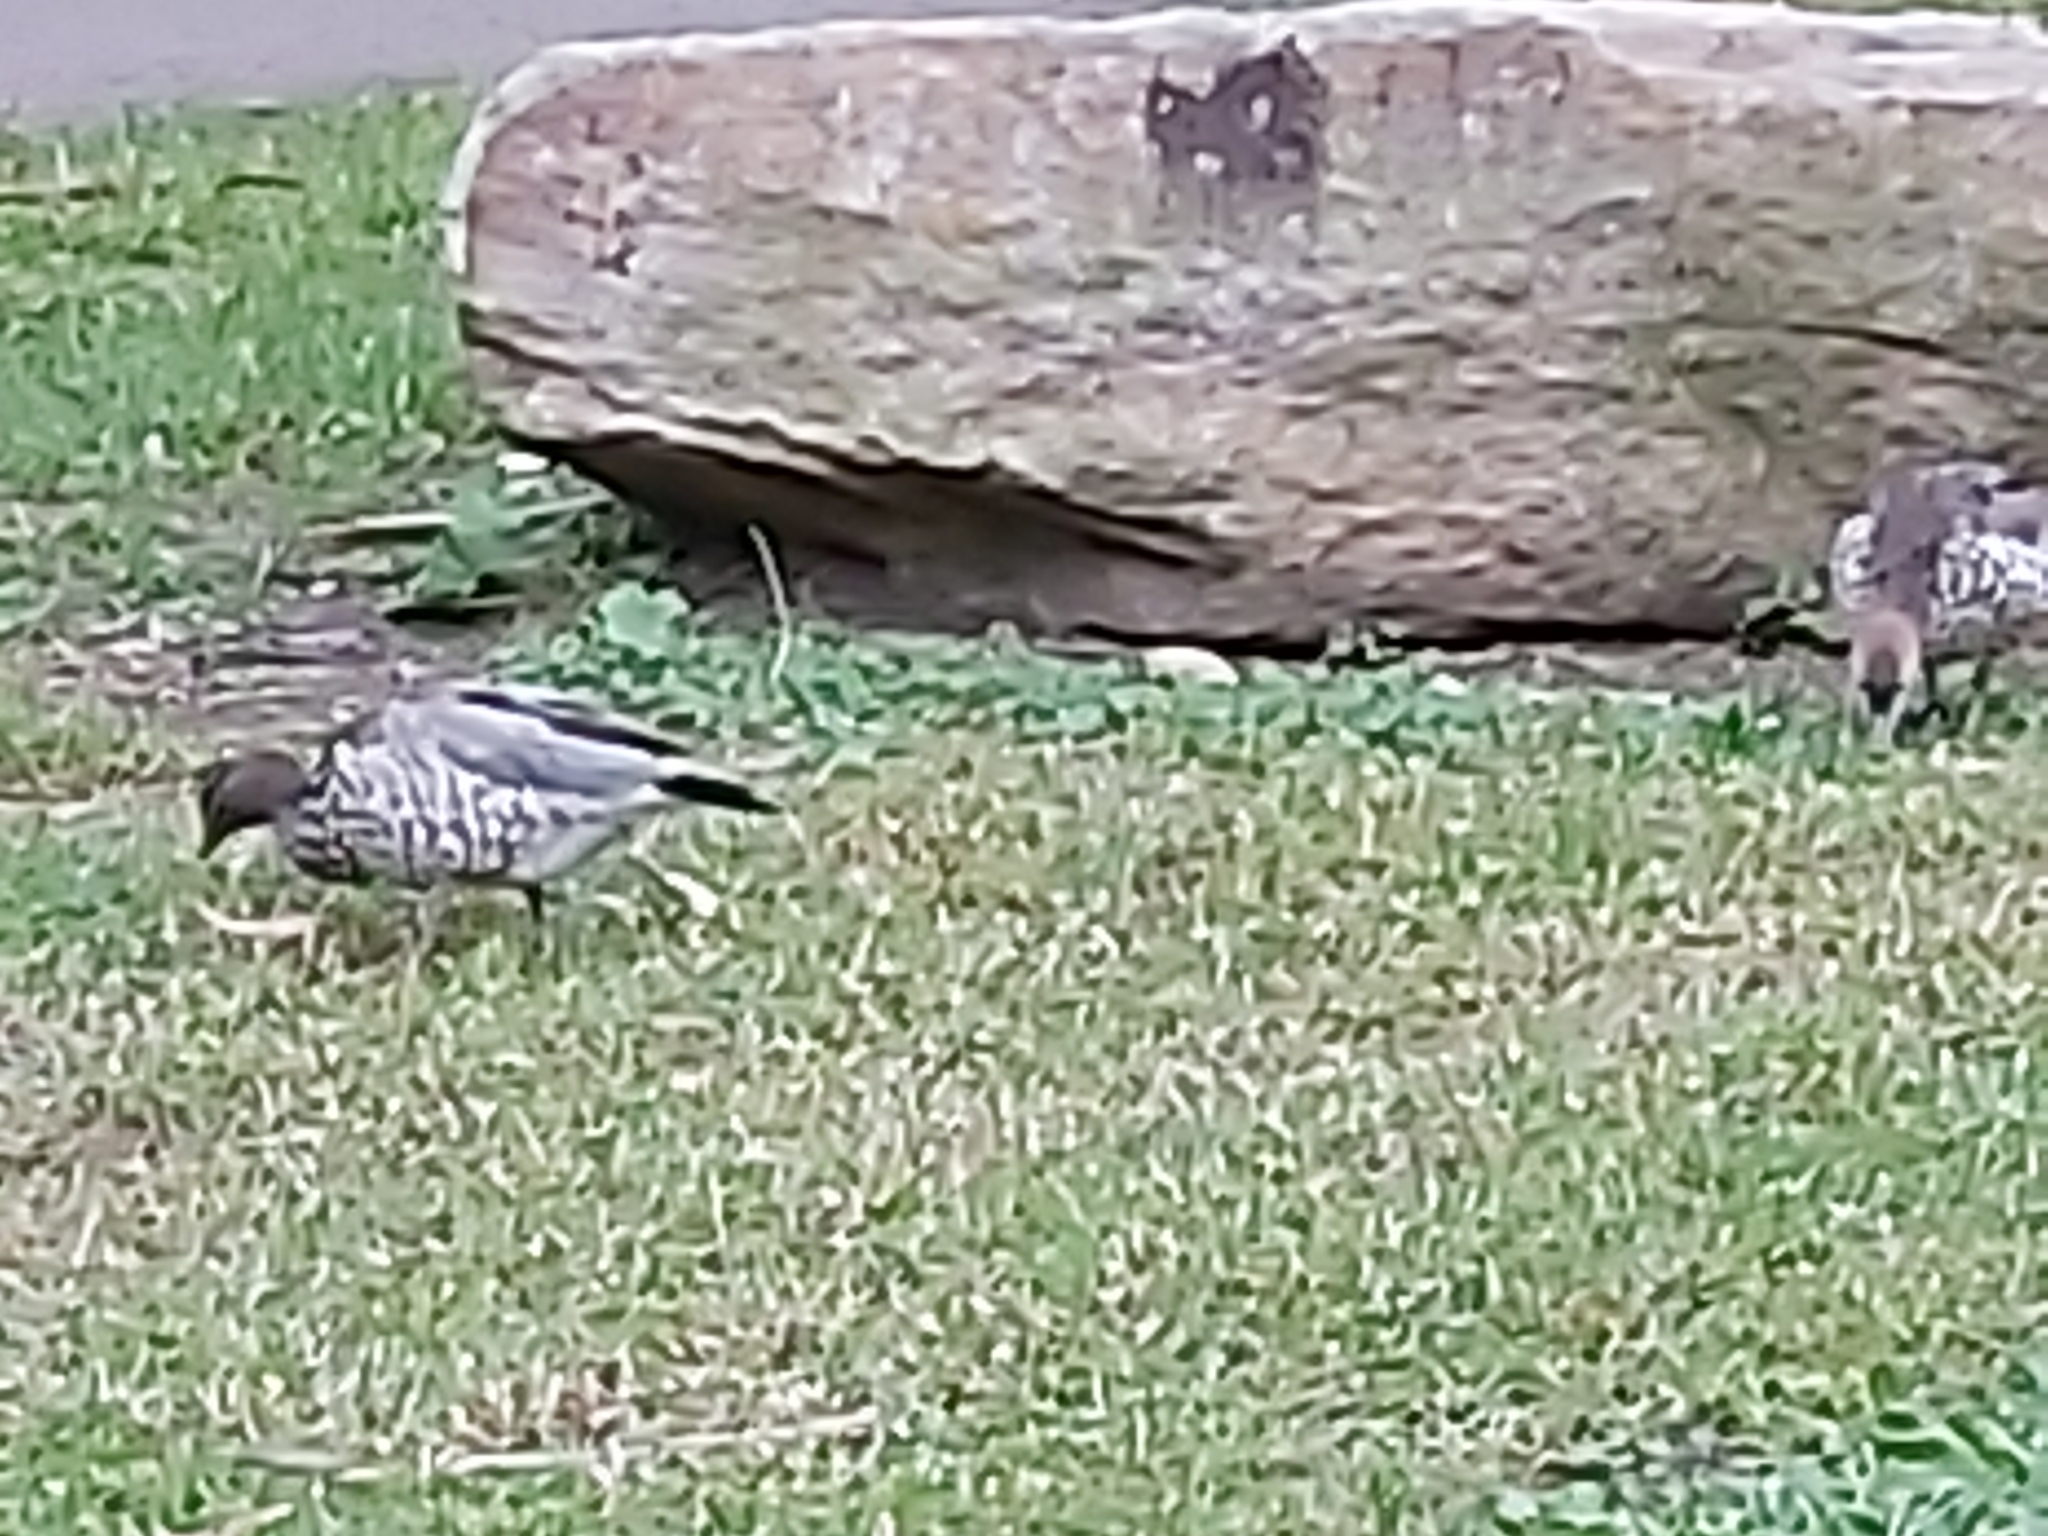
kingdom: Animalia
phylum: Chordata
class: Aves
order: Anseriformes
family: Anatidae
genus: Chenonetta
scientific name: Chenonetta jubata
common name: Maned duck
